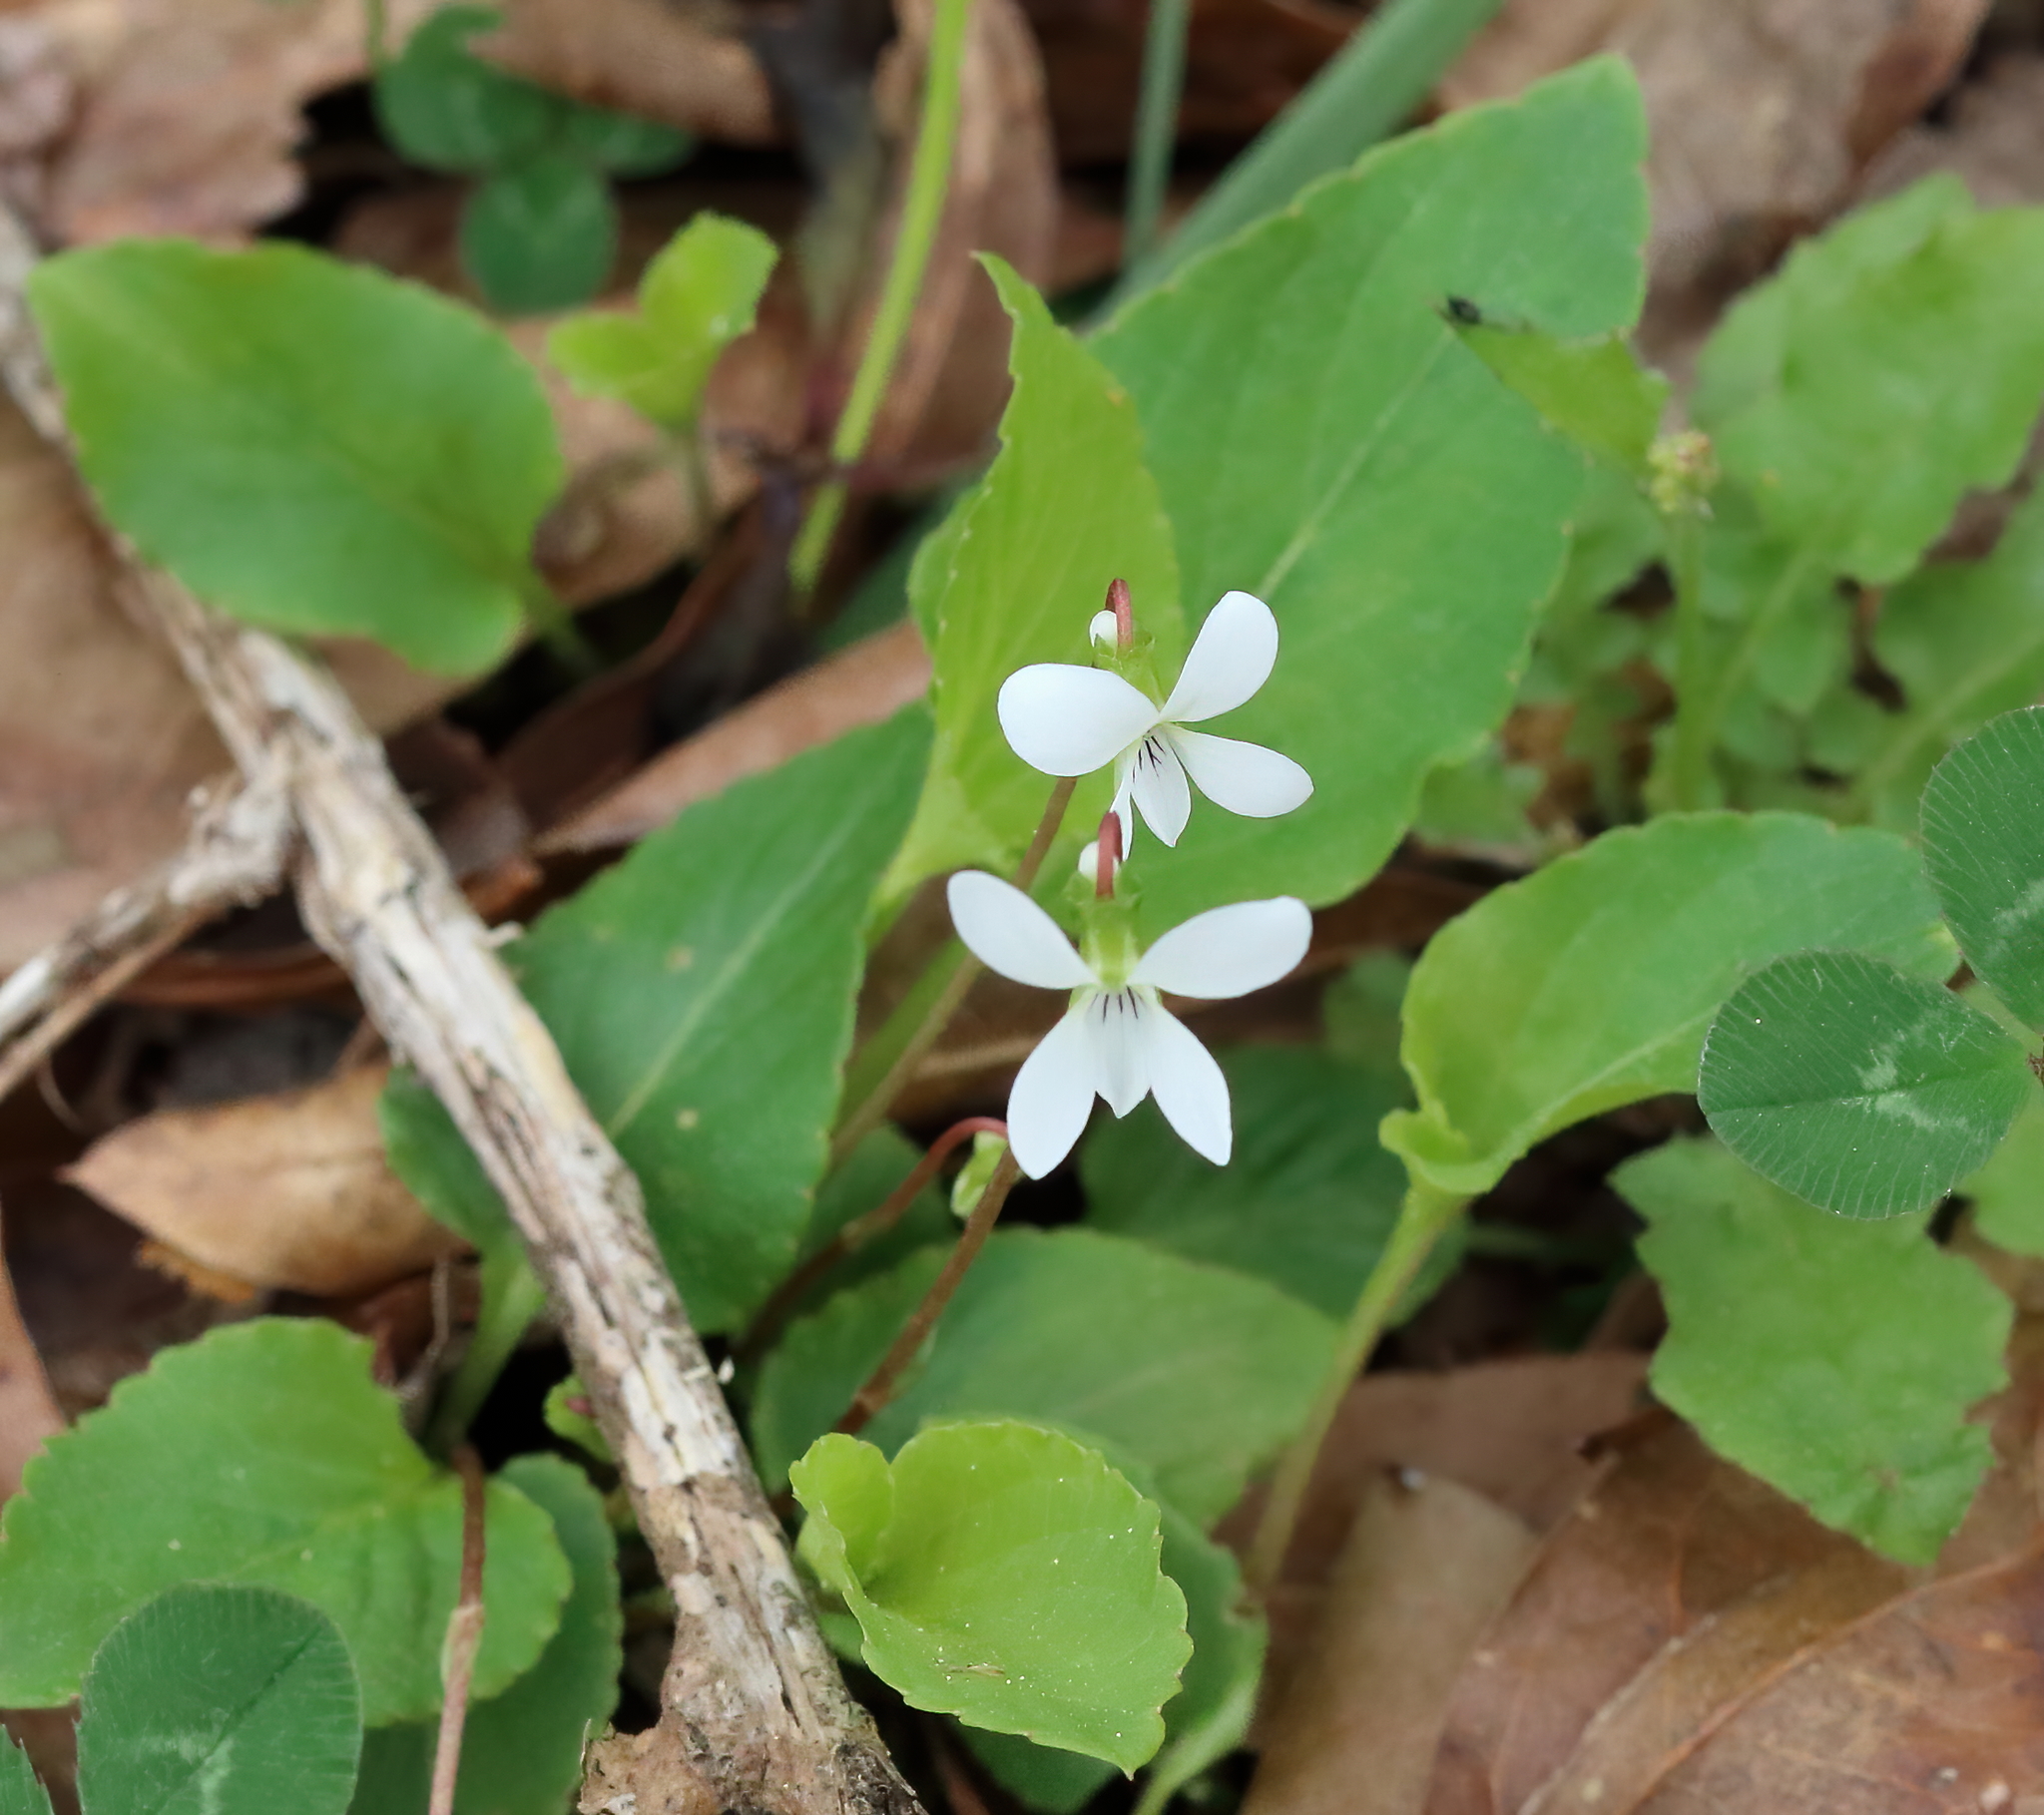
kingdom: Plantae
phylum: Tracheophyta
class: Magnoliopsida
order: Malpighiales
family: Violaceae
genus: Viola
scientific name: Viola primulifolia
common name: Primrose-leaf violet
